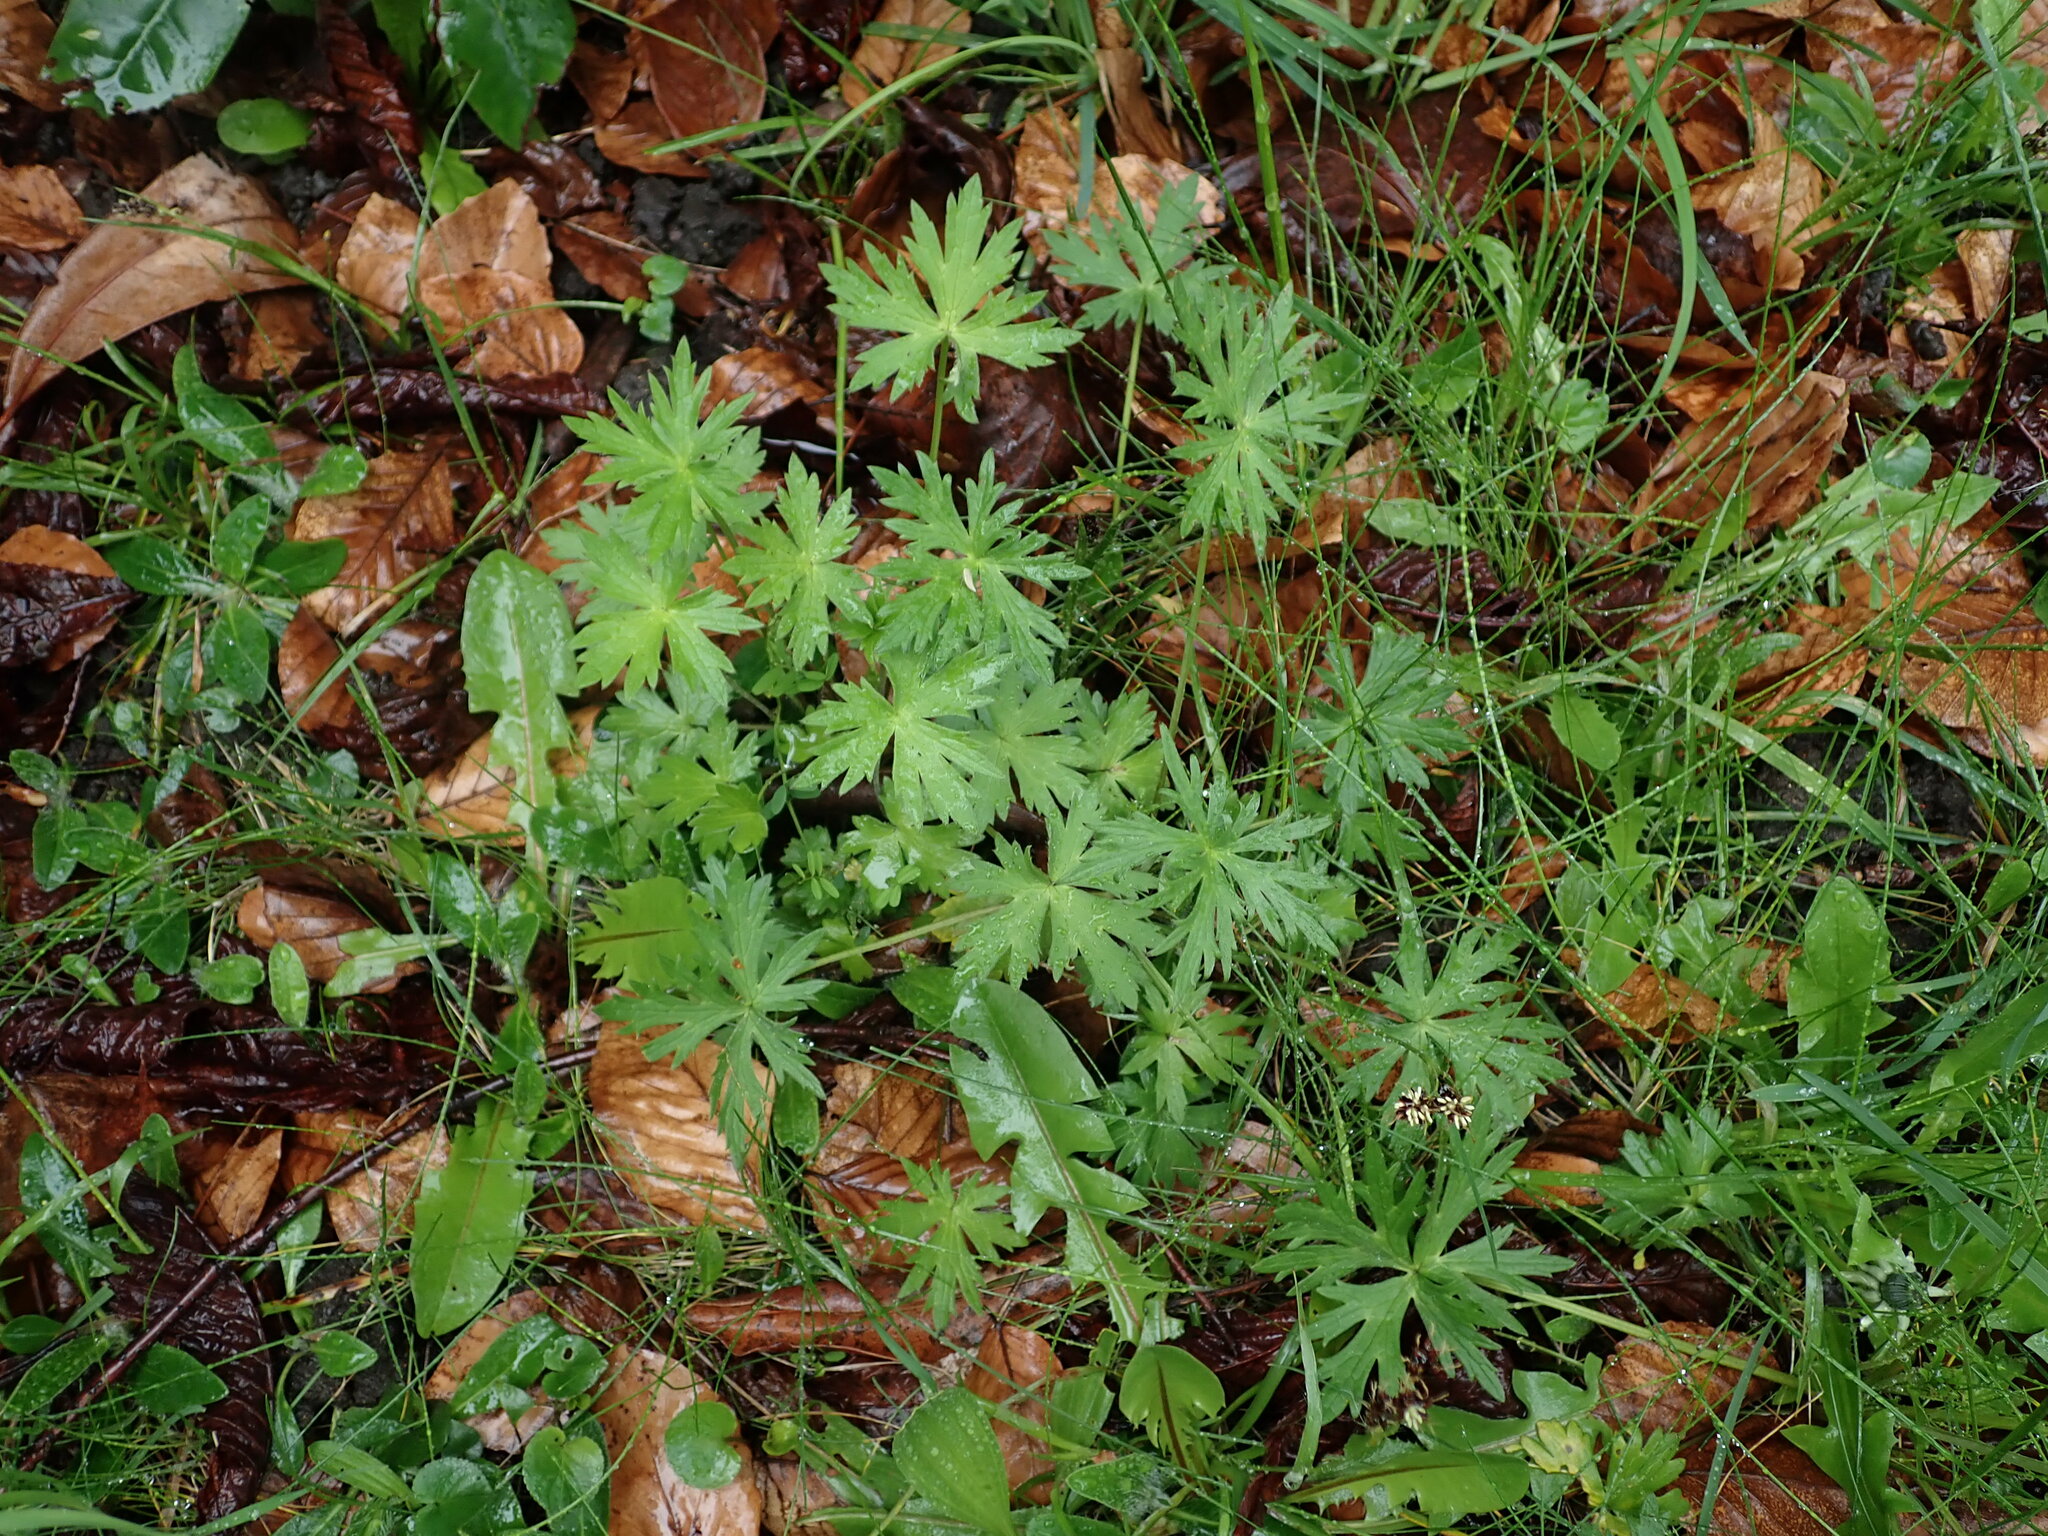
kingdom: Plantae
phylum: Tracheophyta
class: Magnoliopsida
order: Ranunculales
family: Ranunculaceae
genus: Ranunculus
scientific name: Ranunculus acris
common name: Meadow buttercup
